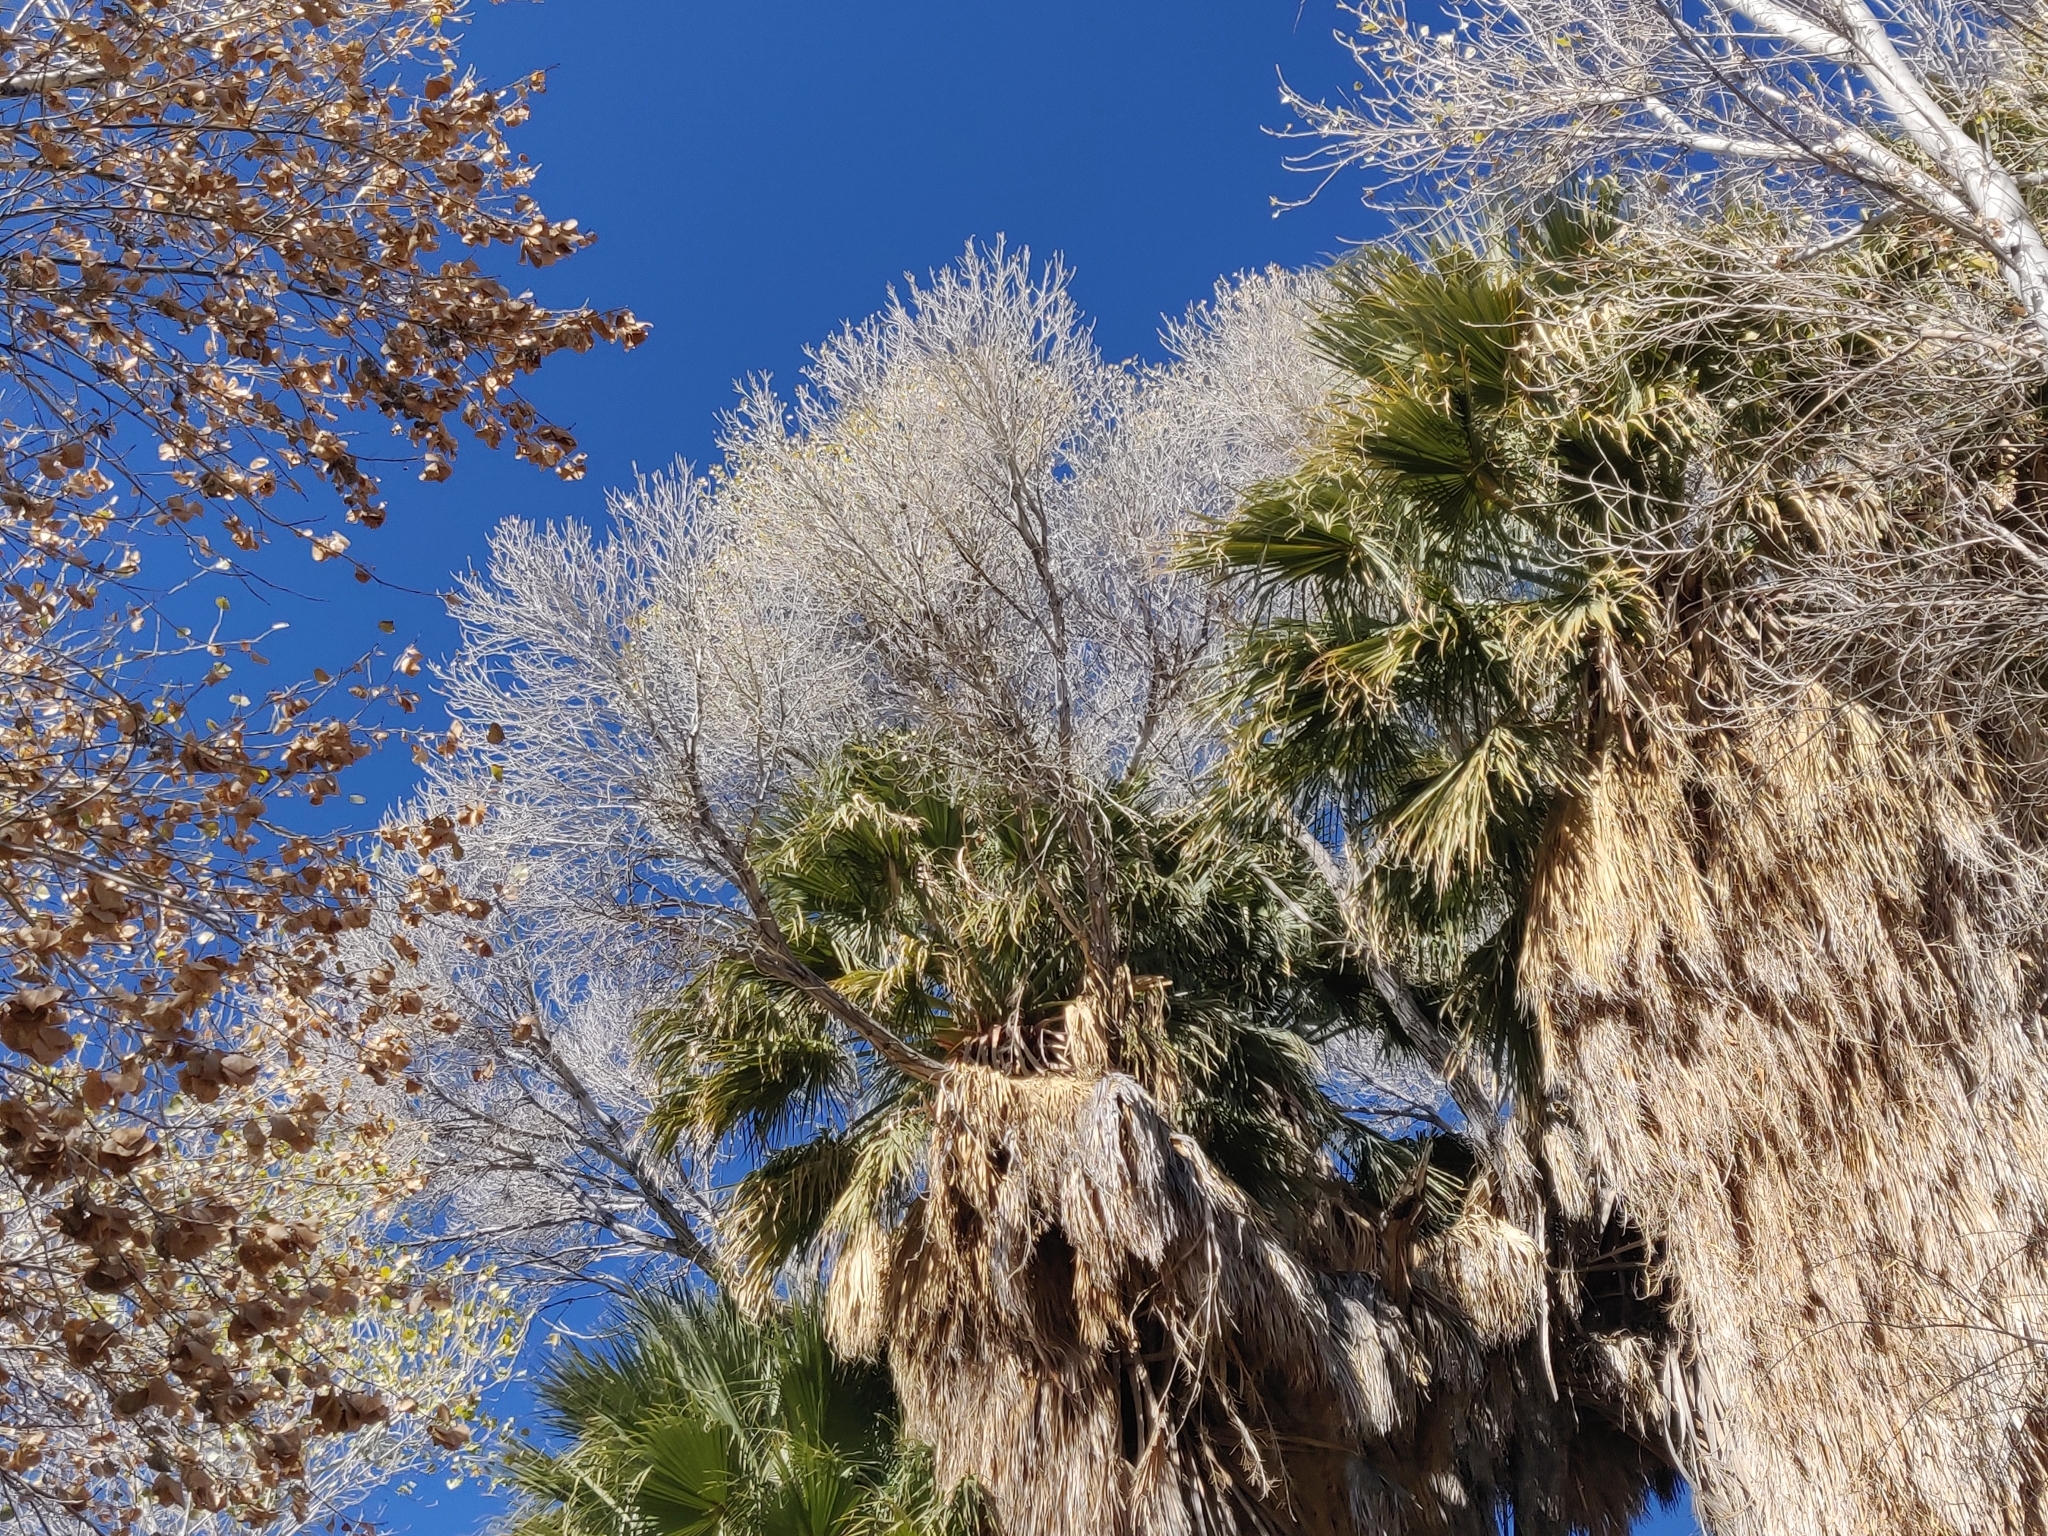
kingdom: Plantae
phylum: Tracheophyta
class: Liliopsida
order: Arecales
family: Arecaceae
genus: Washingtonia
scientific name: Washingtonia filifera
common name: California fan palm
